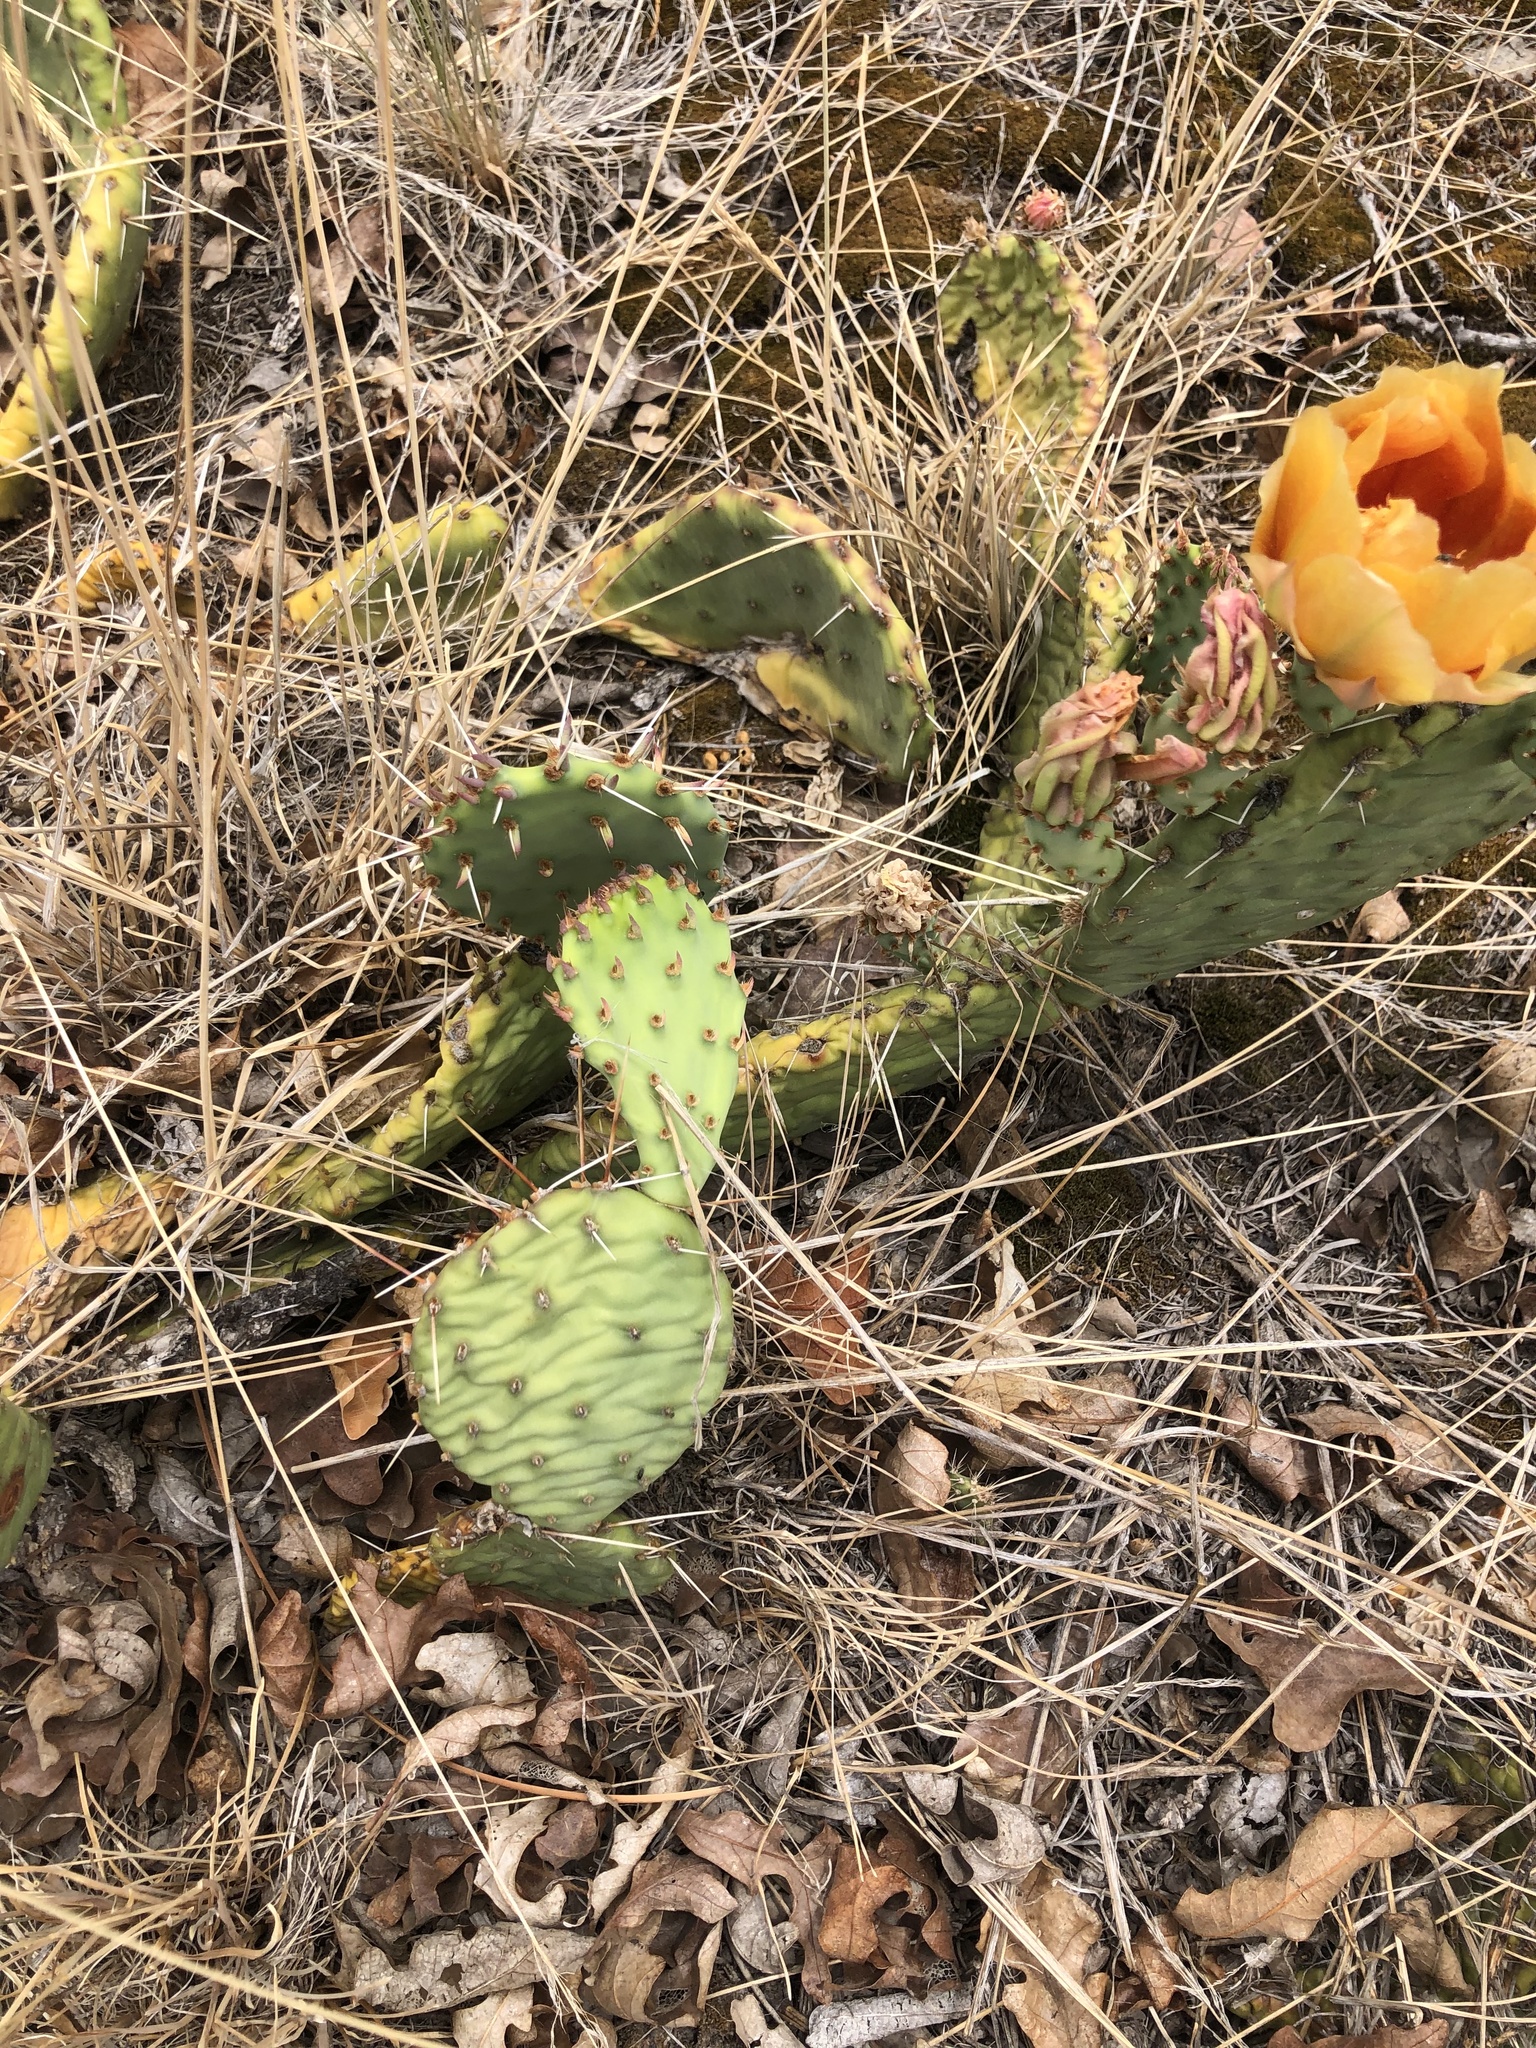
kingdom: Plantae
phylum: Tracheophyta
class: Magnoliopsida
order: Caryophyllales
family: Cactaceae
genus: Opuntia
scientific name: Opuntia macrorhiza
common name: Grassland pricklypear
